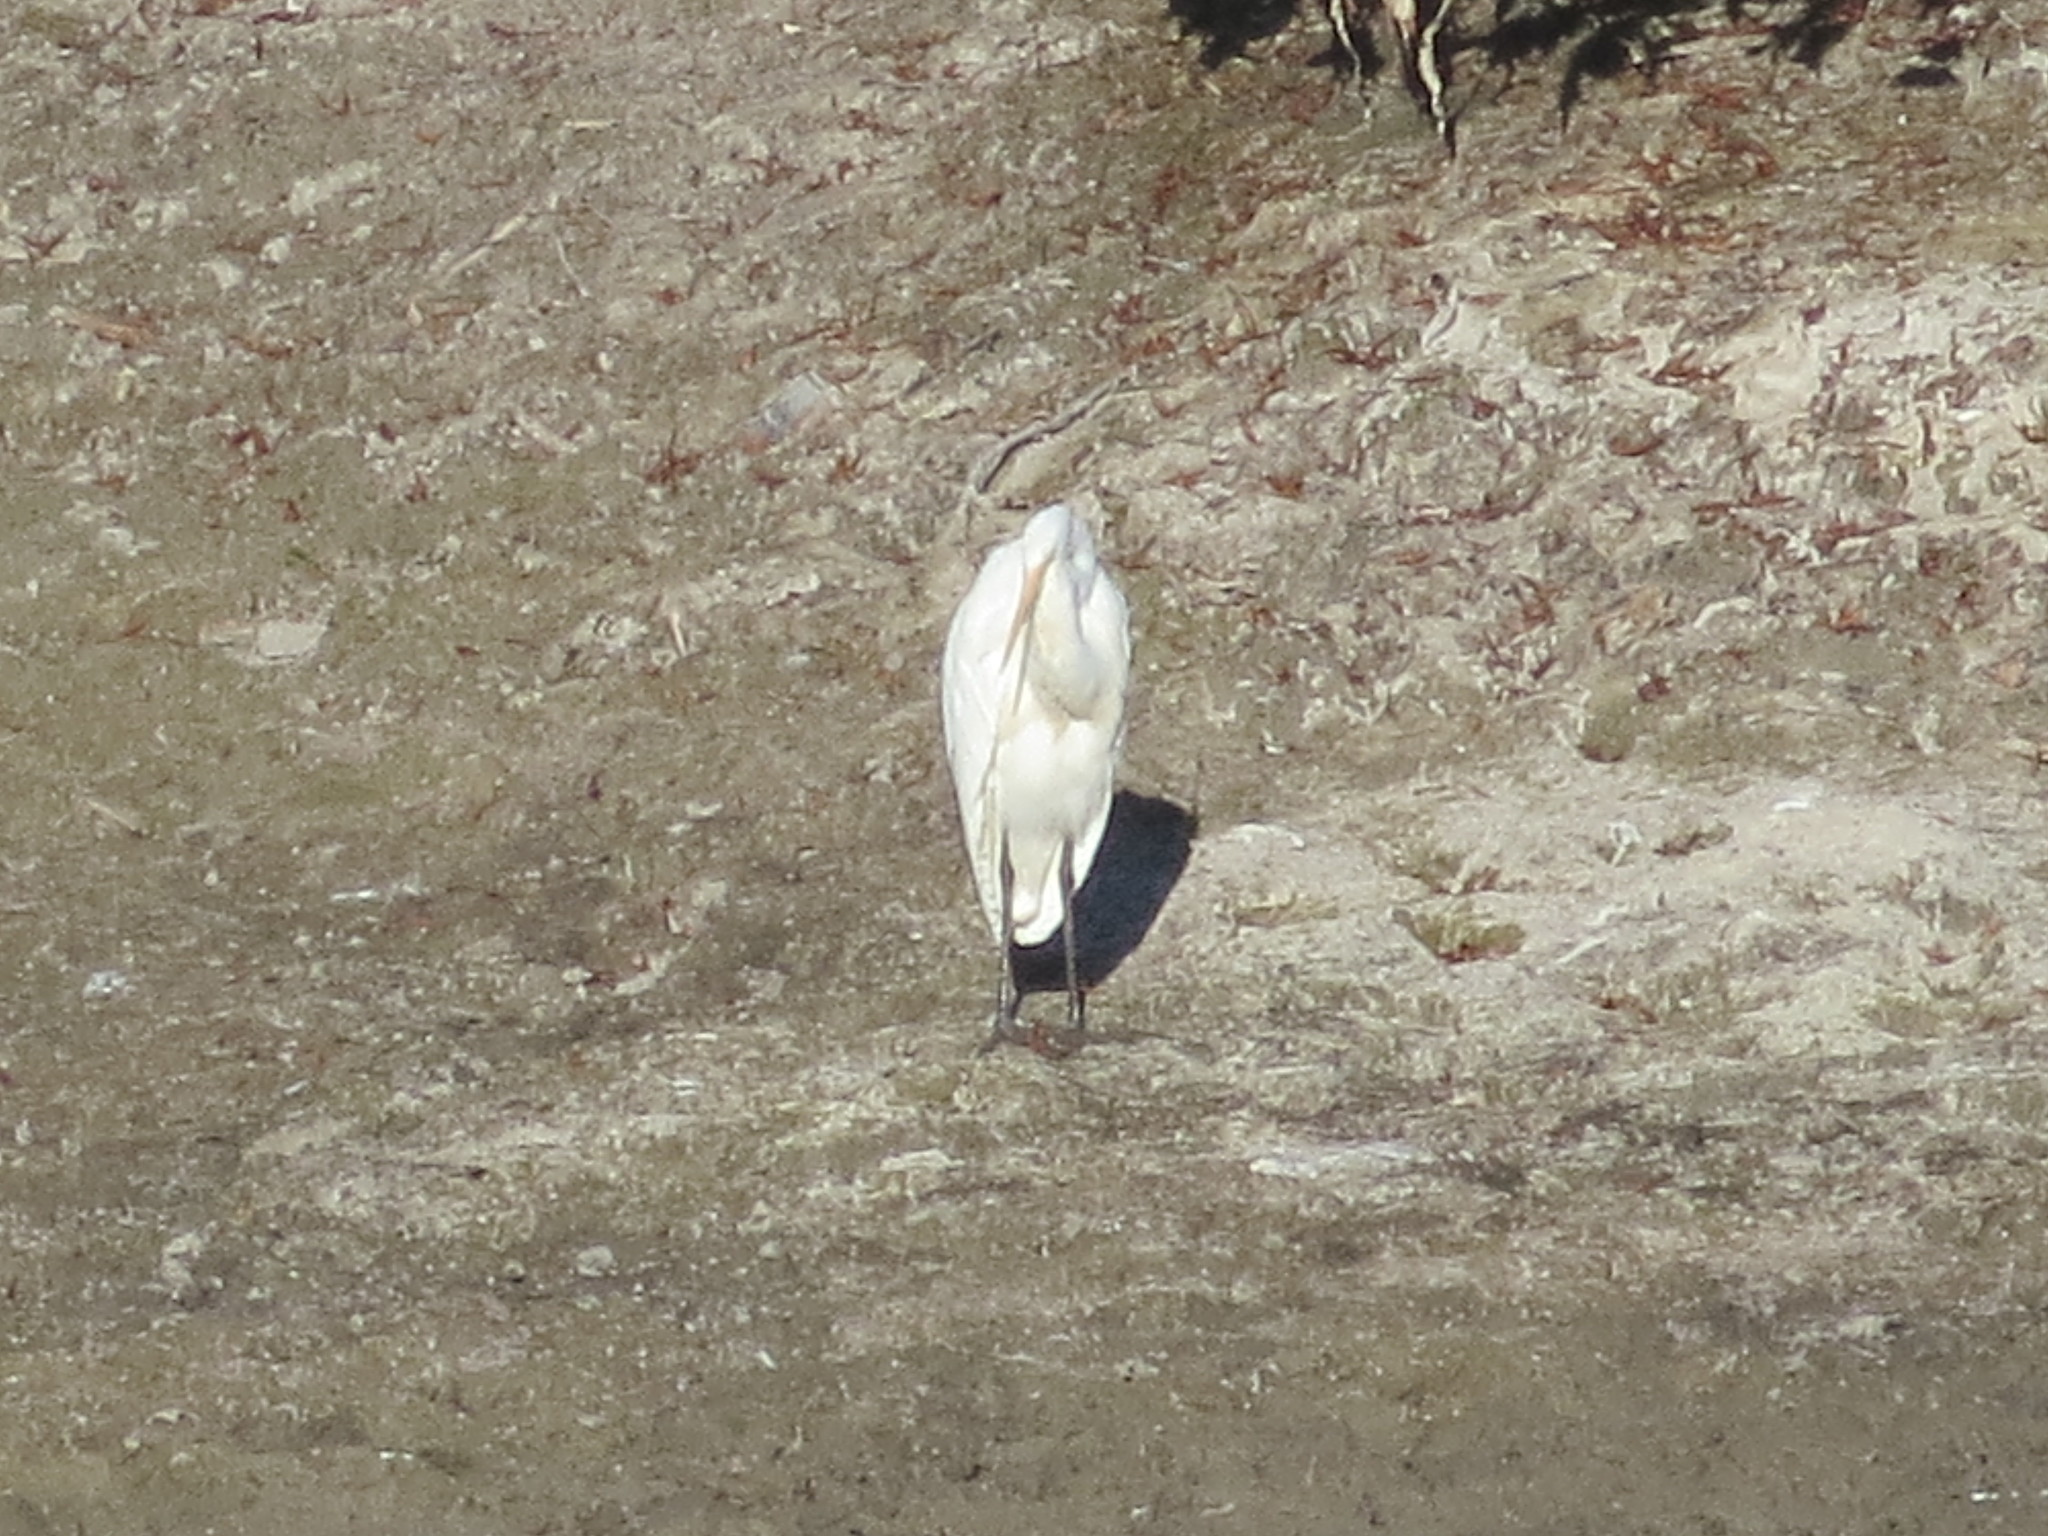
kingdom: Animalia
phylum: Chordata
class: Aves
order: Pelecaniformes
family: Ardeidae
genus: Ardea
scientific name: Ardea alba
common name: Great egret
